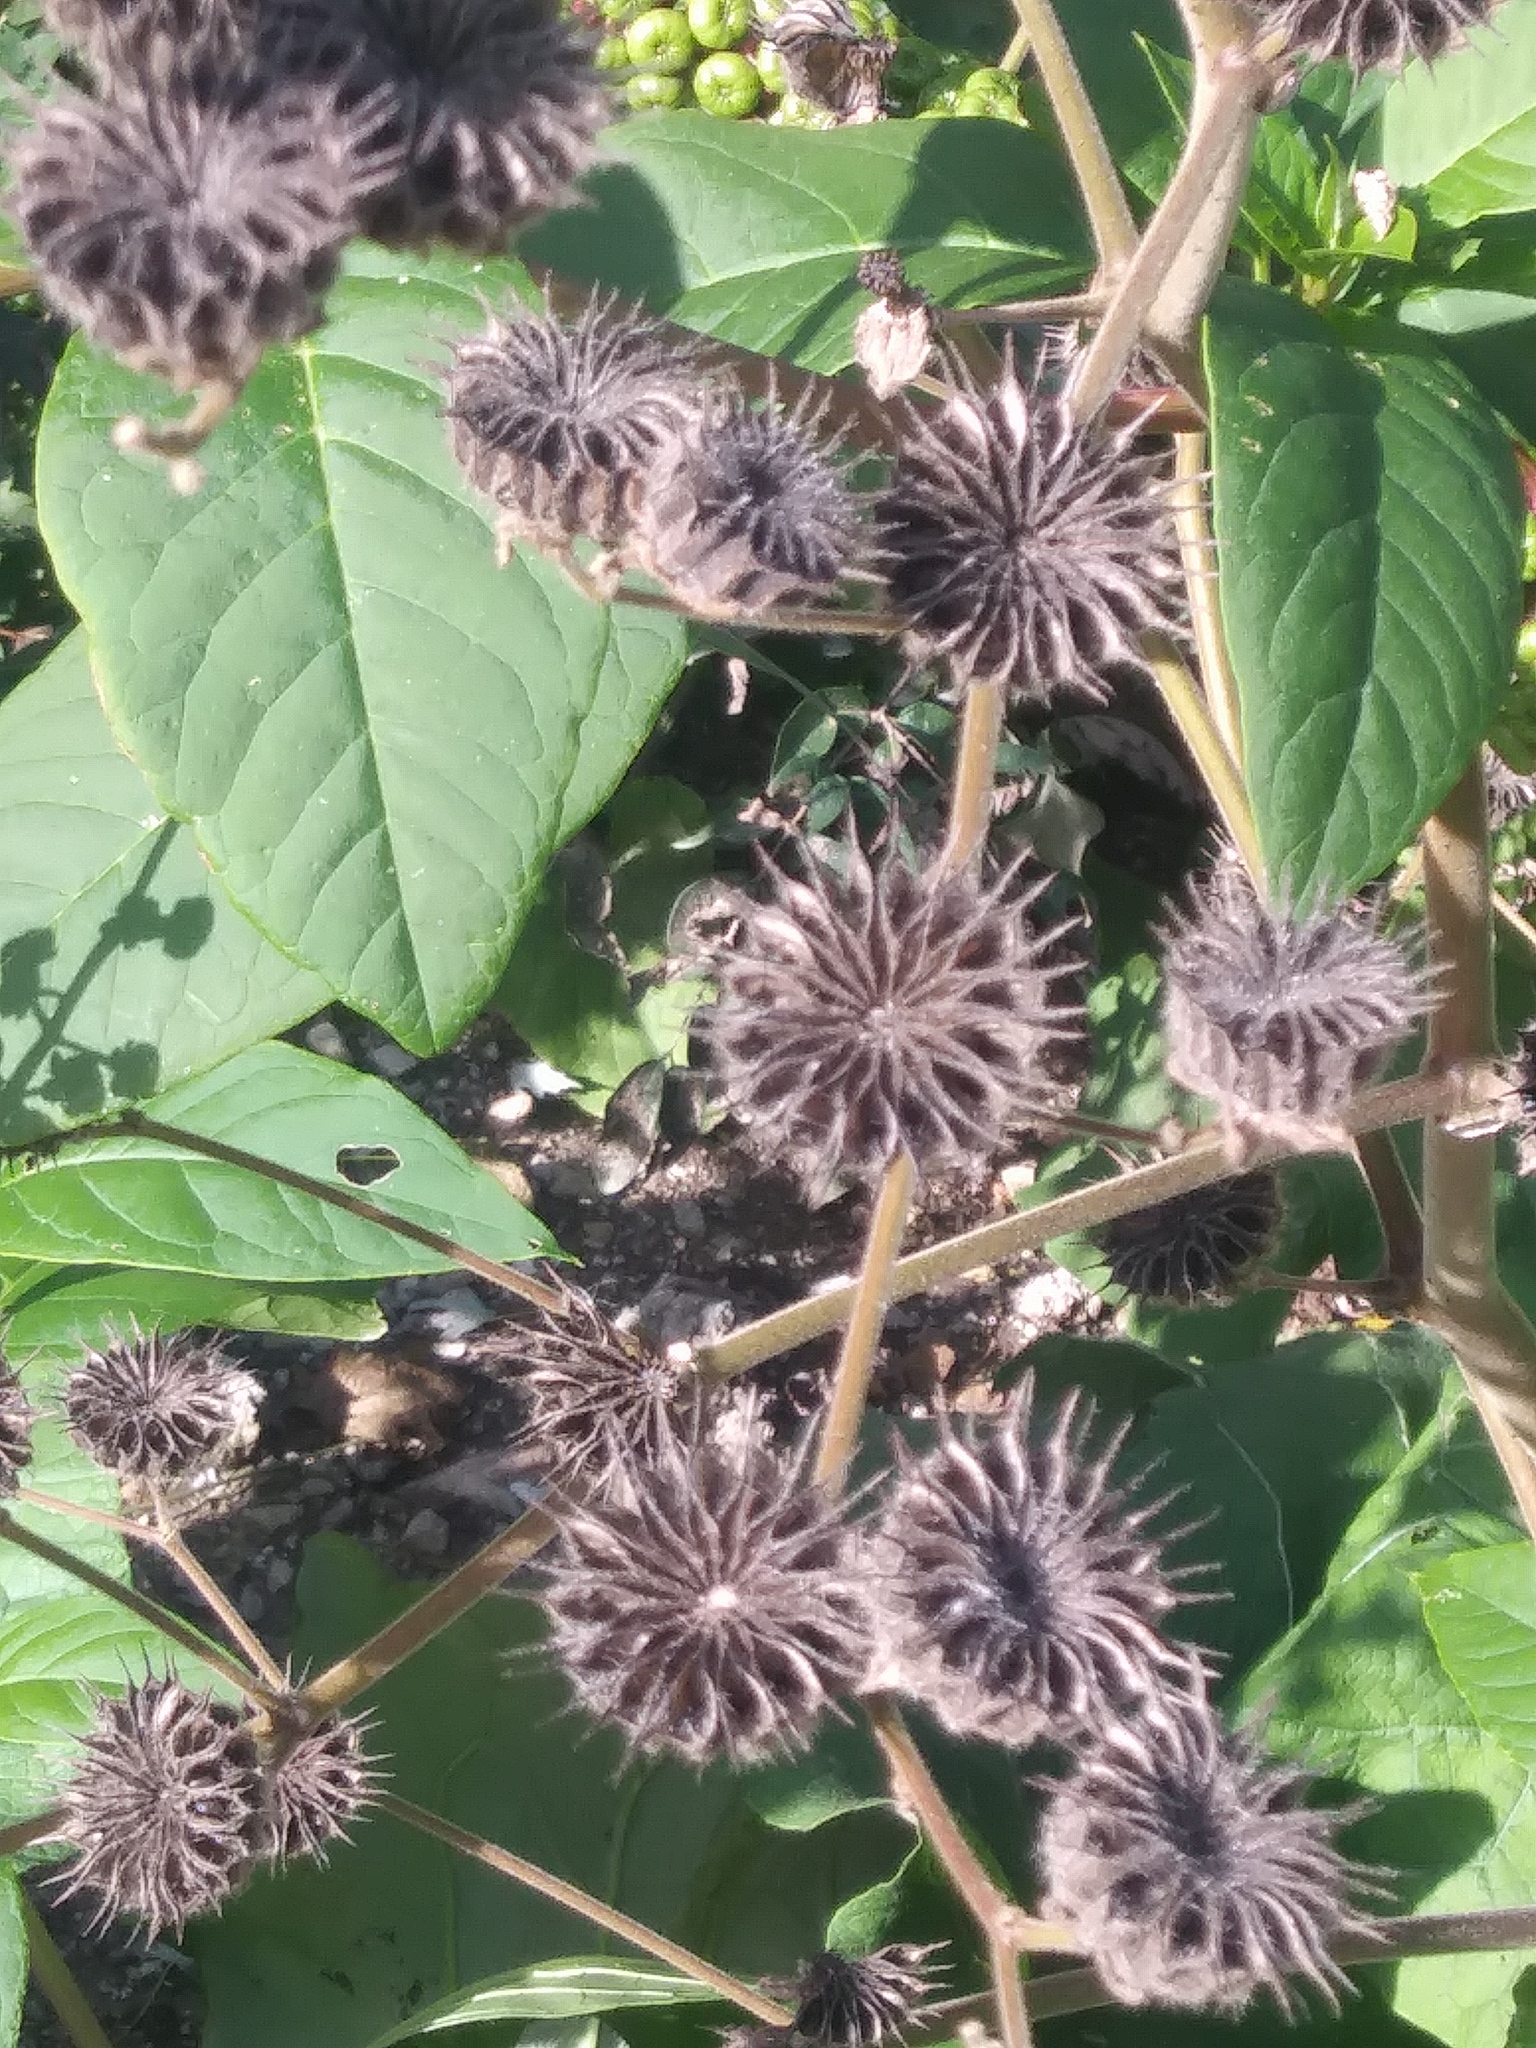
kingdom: Plantae
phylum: Tracheophyta
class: Magnoliopsida
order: Malvales
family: Malvaceae
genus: Abutilon
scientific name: Abutilon theophrasti
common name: Velvetleaf
